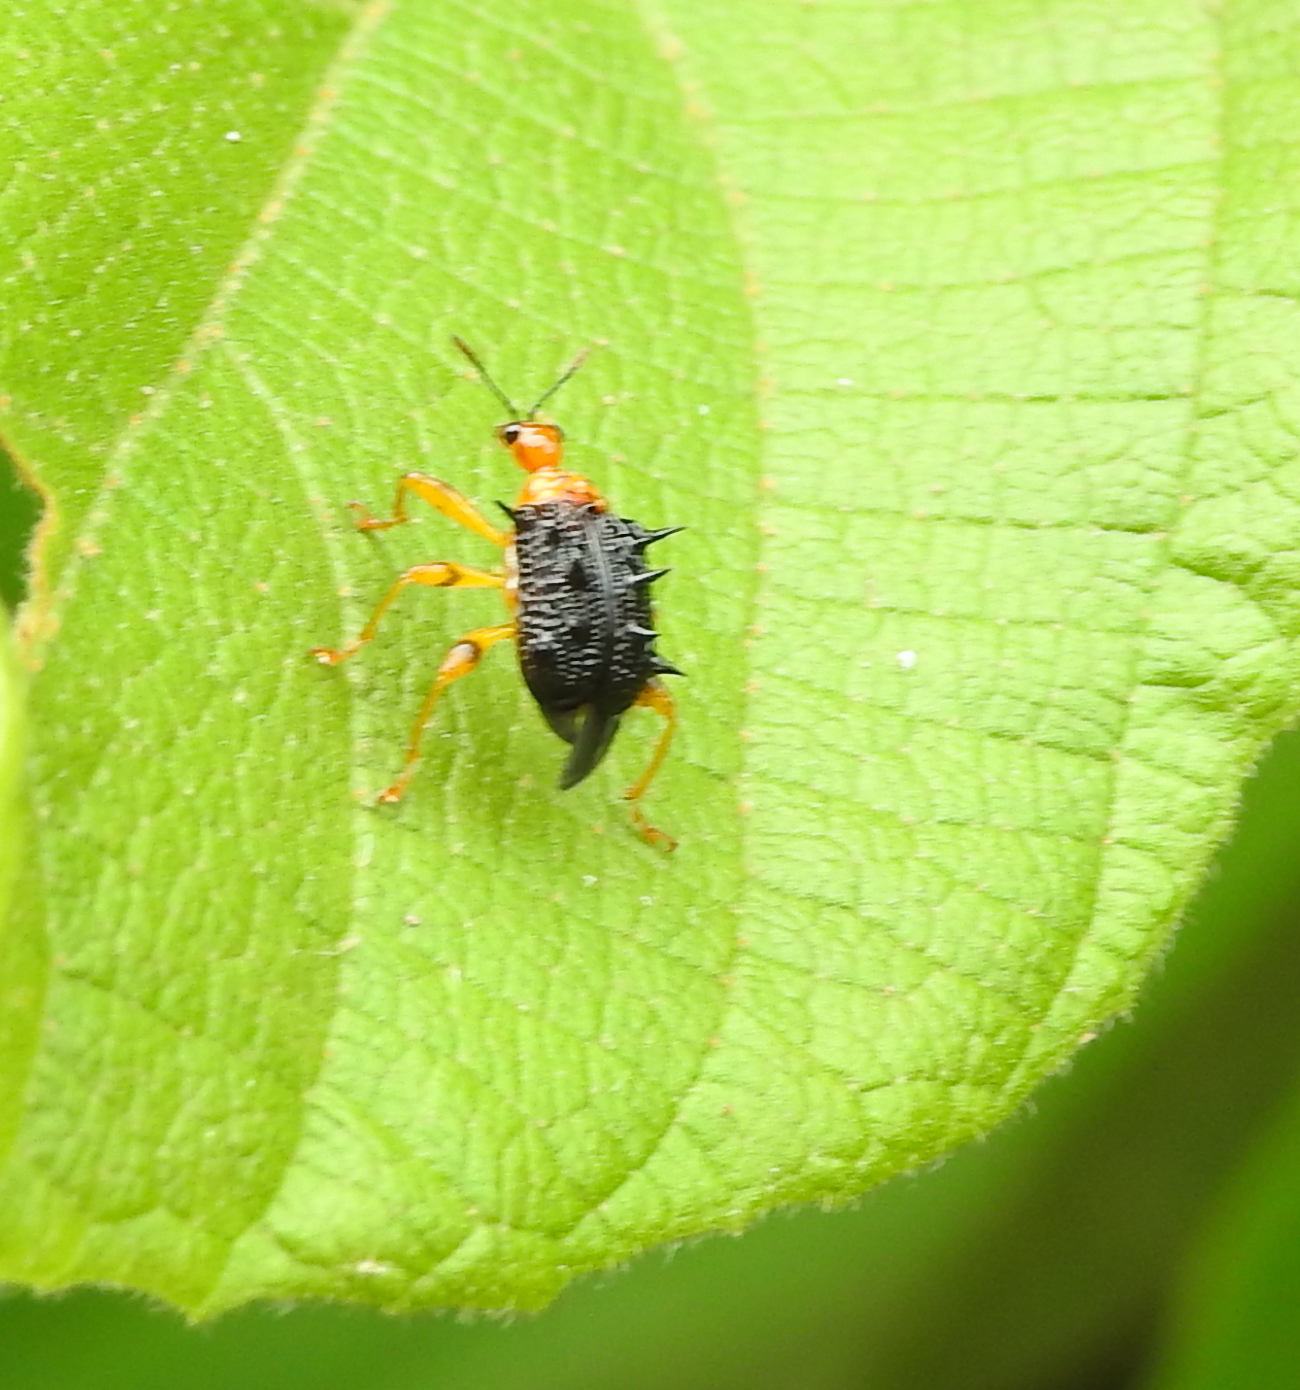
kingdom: Animalia
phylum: Arthropoda
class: Insecta
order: Coleoptera
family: Attelabidae
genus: Hoplapoderus
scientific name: Hoplapoderus hystrix
